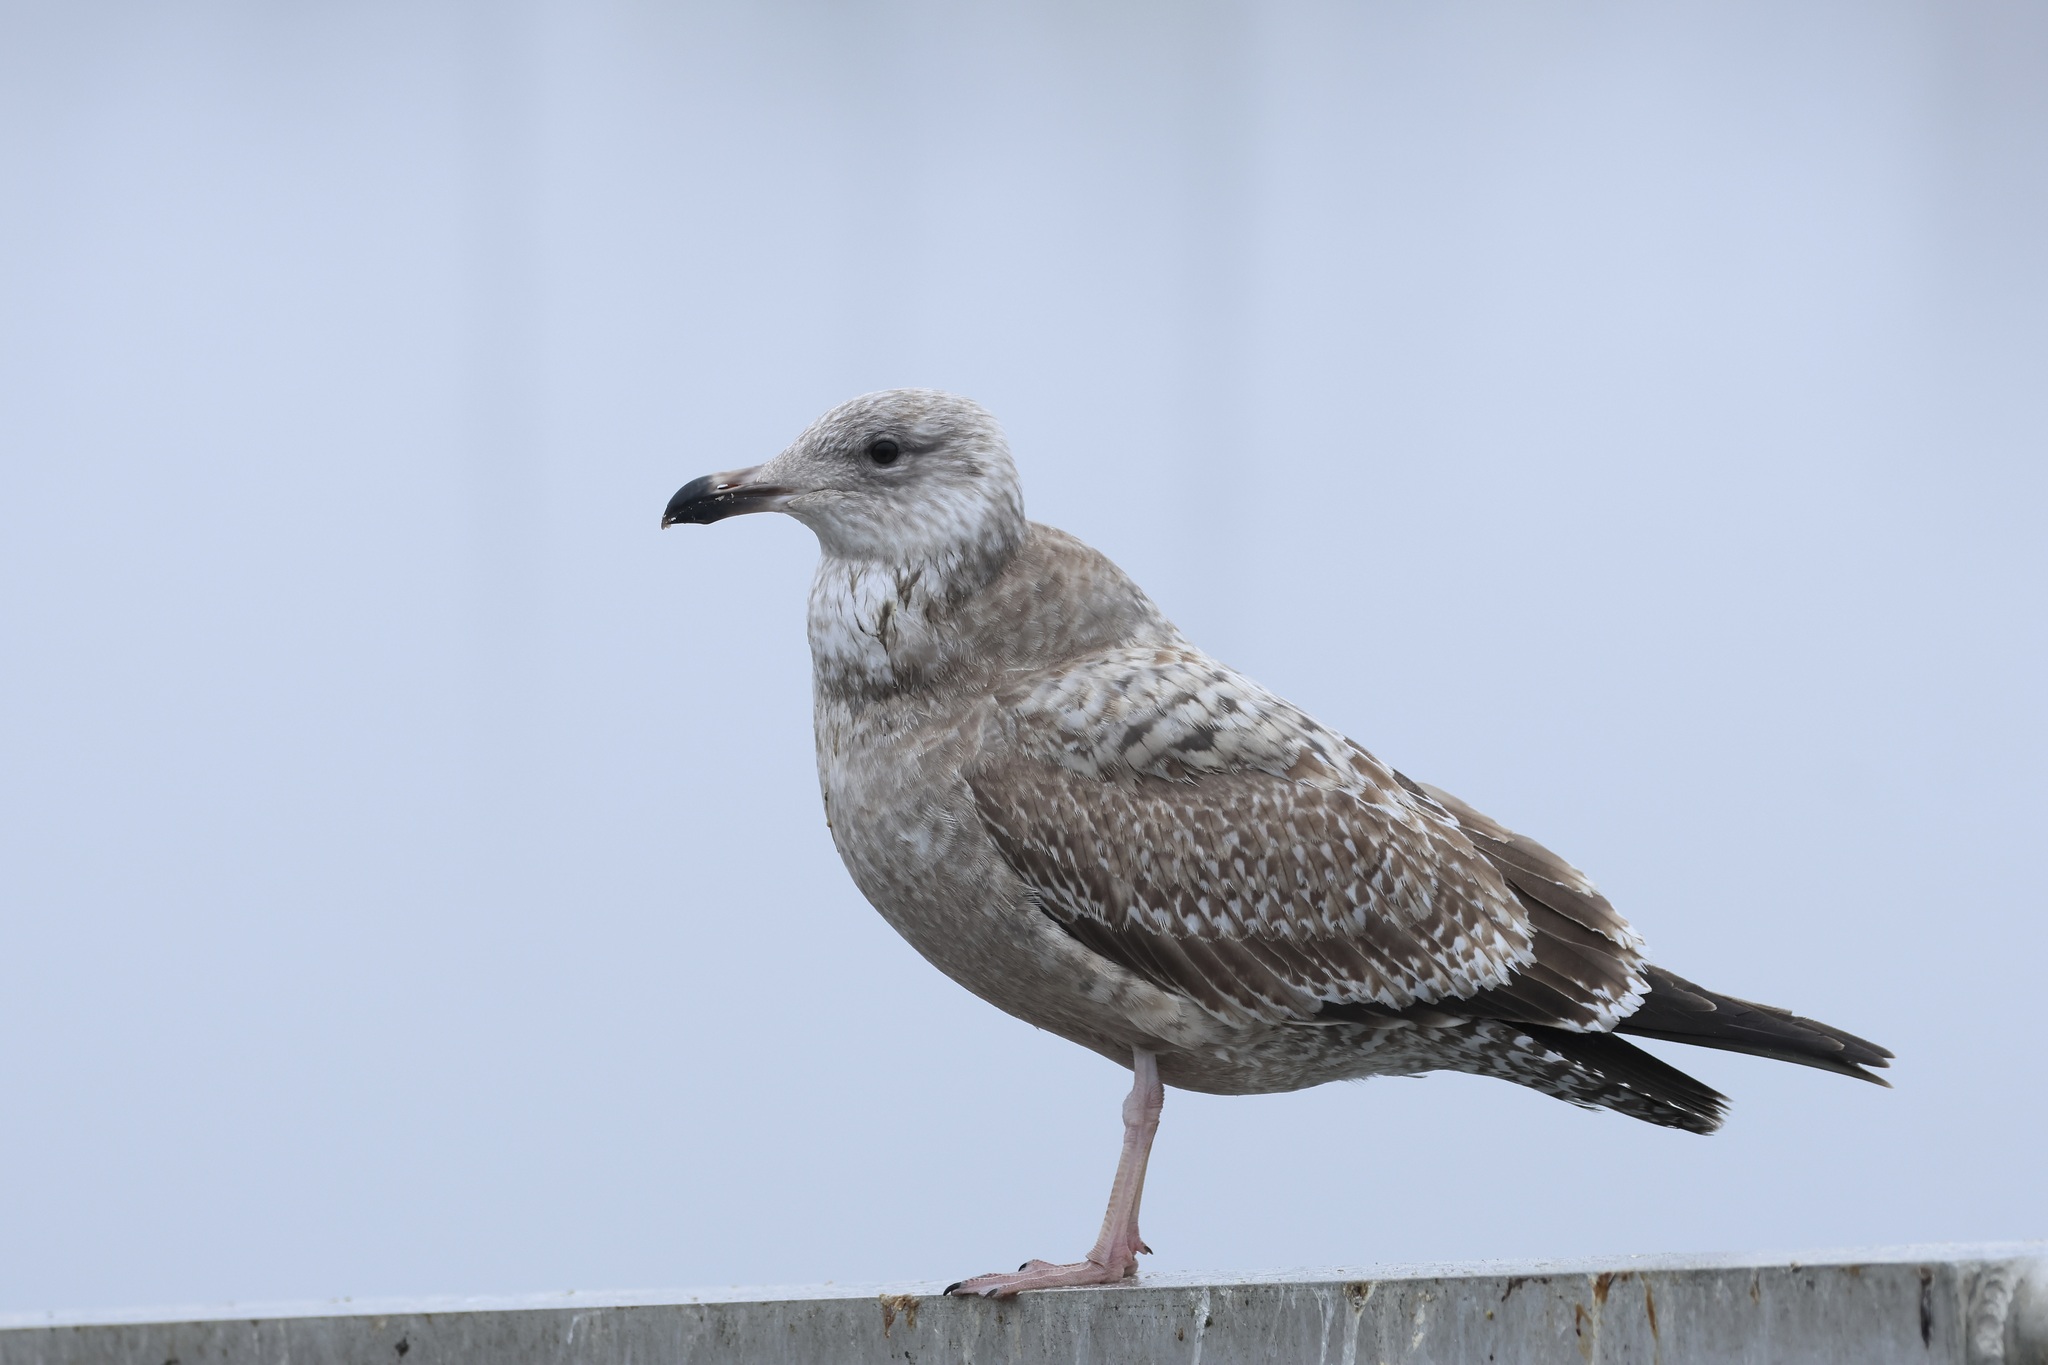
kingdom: Animalia
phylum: Chordata
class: Aves
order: Charadriiformes
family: Laridae
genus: Larus
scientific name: Larus argentatus
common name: Herring gull
